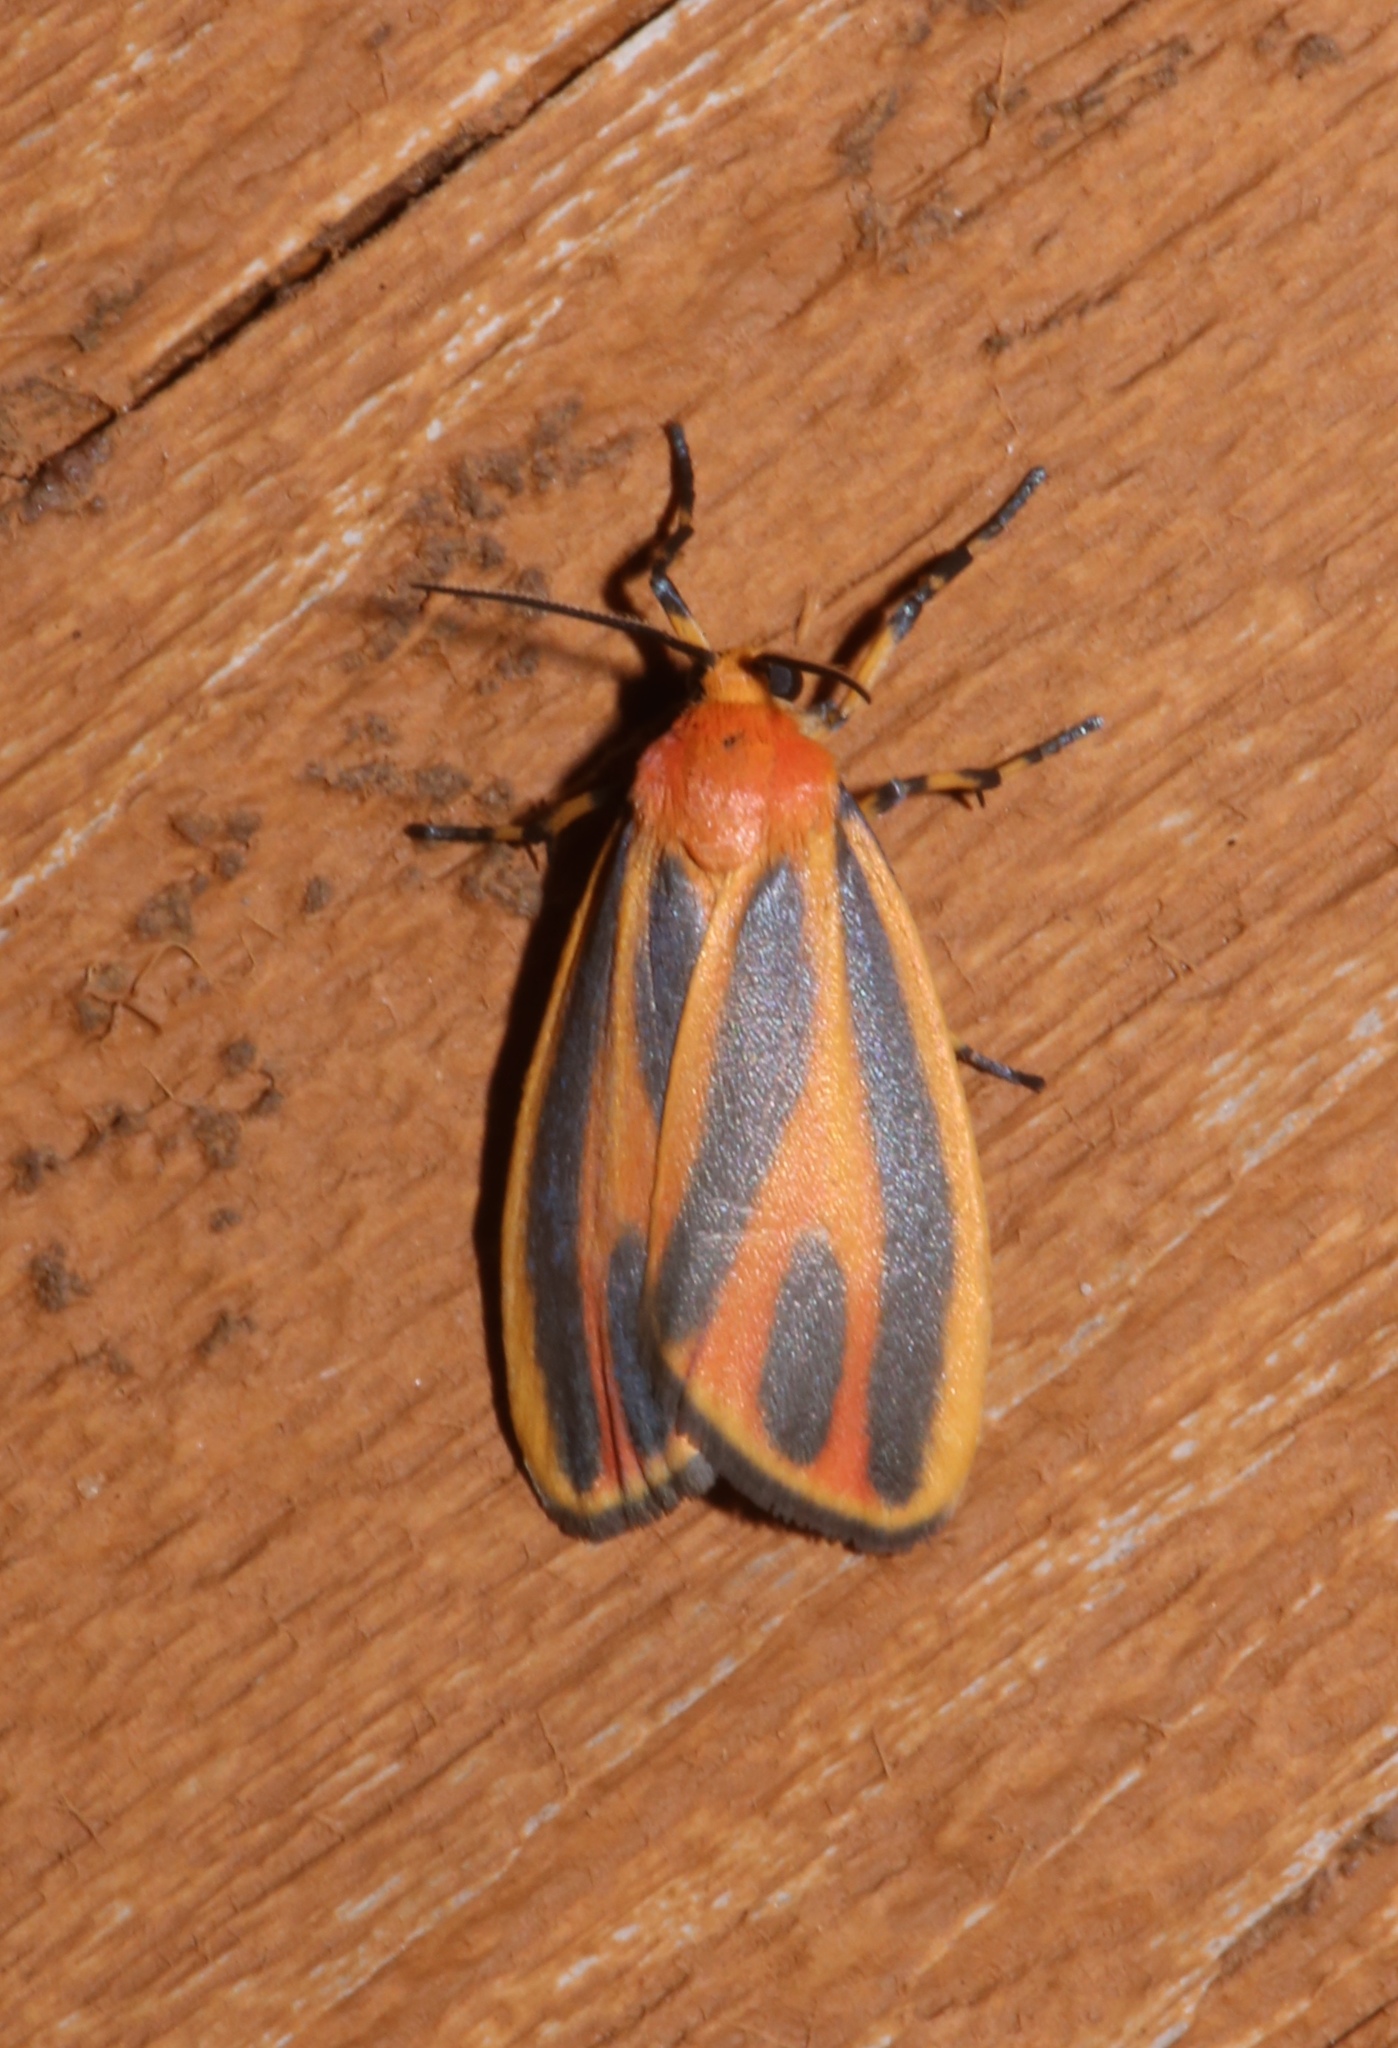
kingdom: Animalia
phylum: Arthropoda
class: Insecta
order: Lepidoptera
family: Erebidae
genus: Hypoprepia
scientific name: Hypoprepia fucosa
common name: Painted lichen moth
